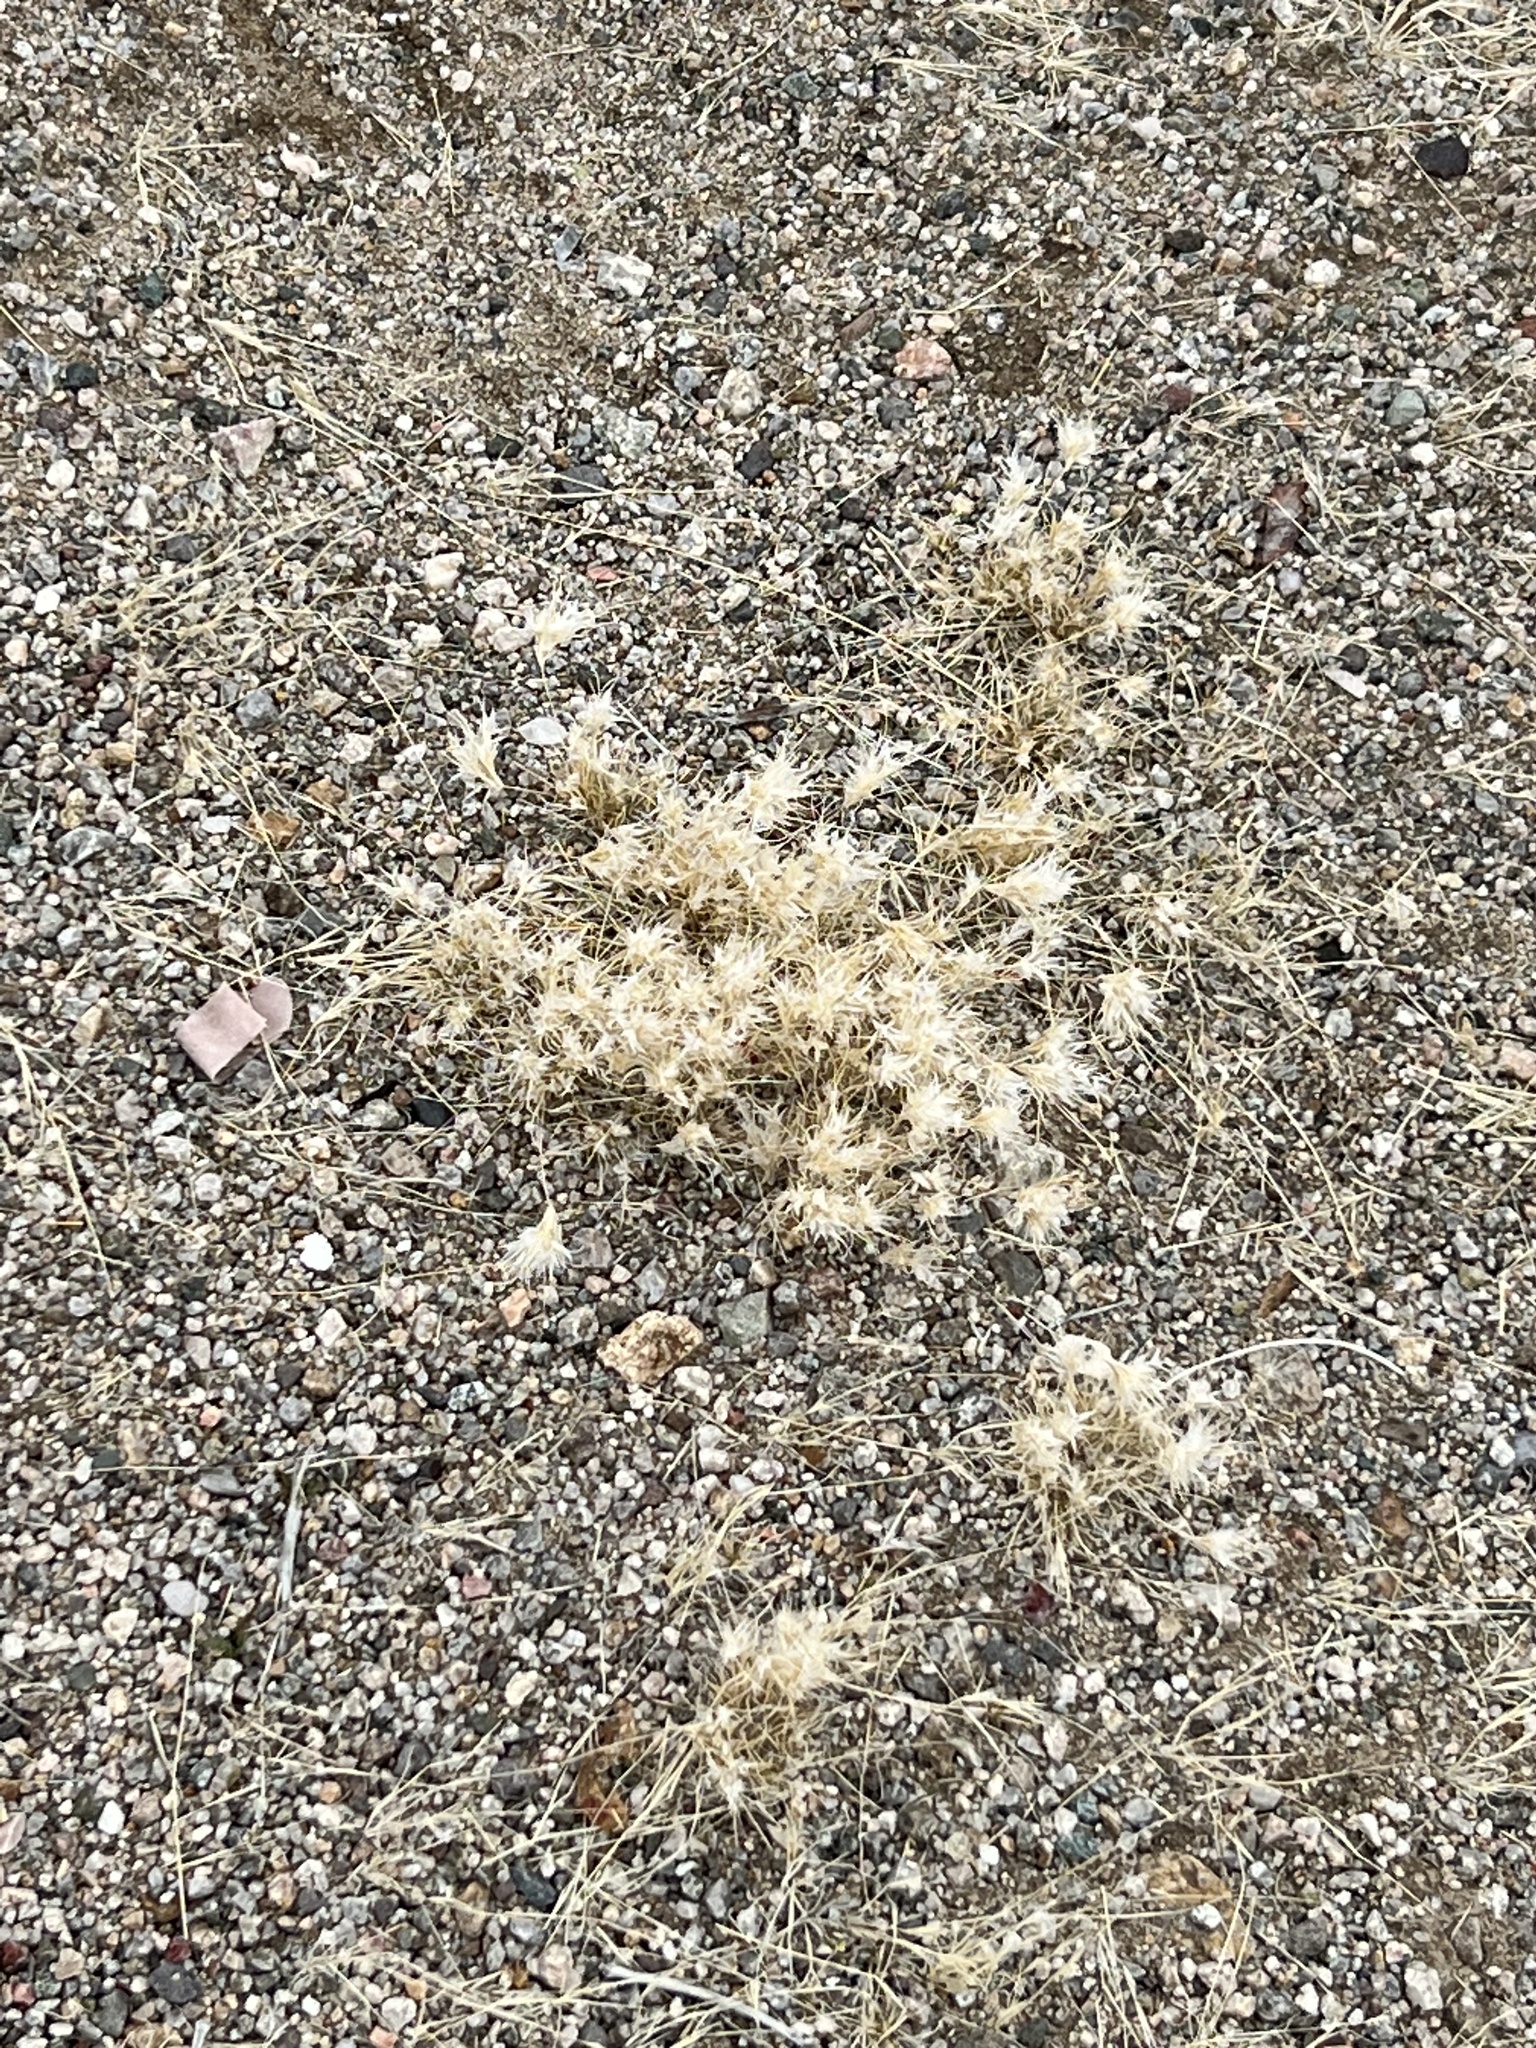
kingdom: Plantae
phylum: Tracheophyta
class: Liliopsida
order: Poales
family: Poaceae
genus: Dasyochloa
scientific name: Dasyochloa pulchella
